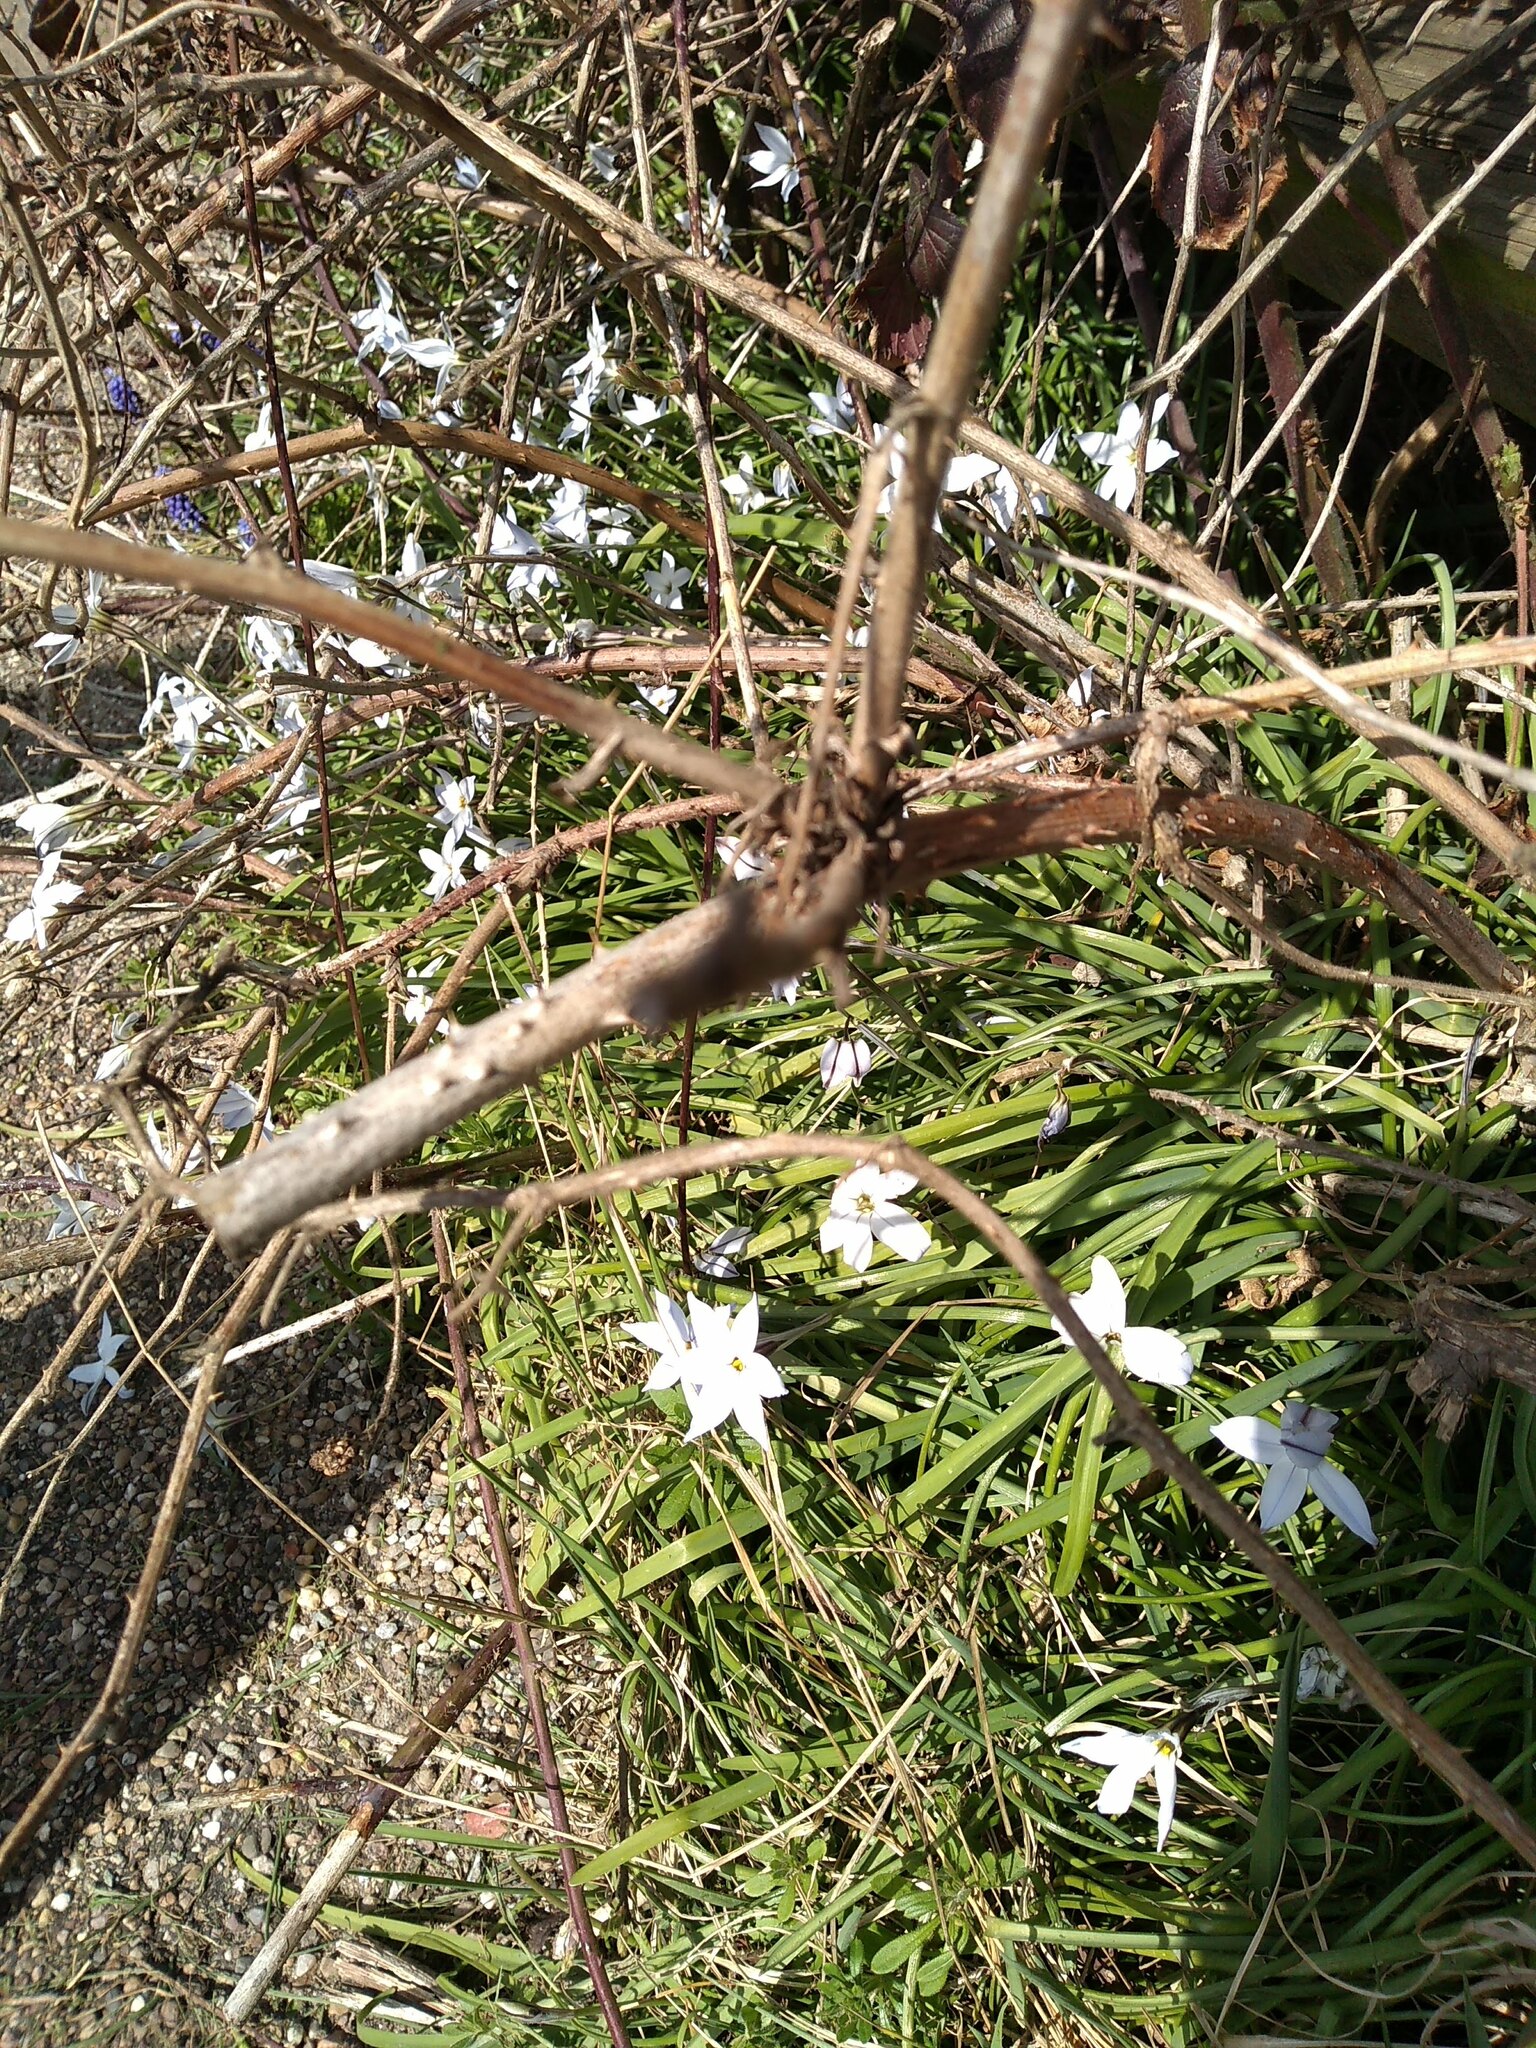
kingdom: Plantae
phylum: Tracheophyta
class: Liliopsida
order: Asparagales
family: Amaryllidaceae
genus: Ipheion
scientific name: Ipheion uniflorum
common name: Spring starflower
